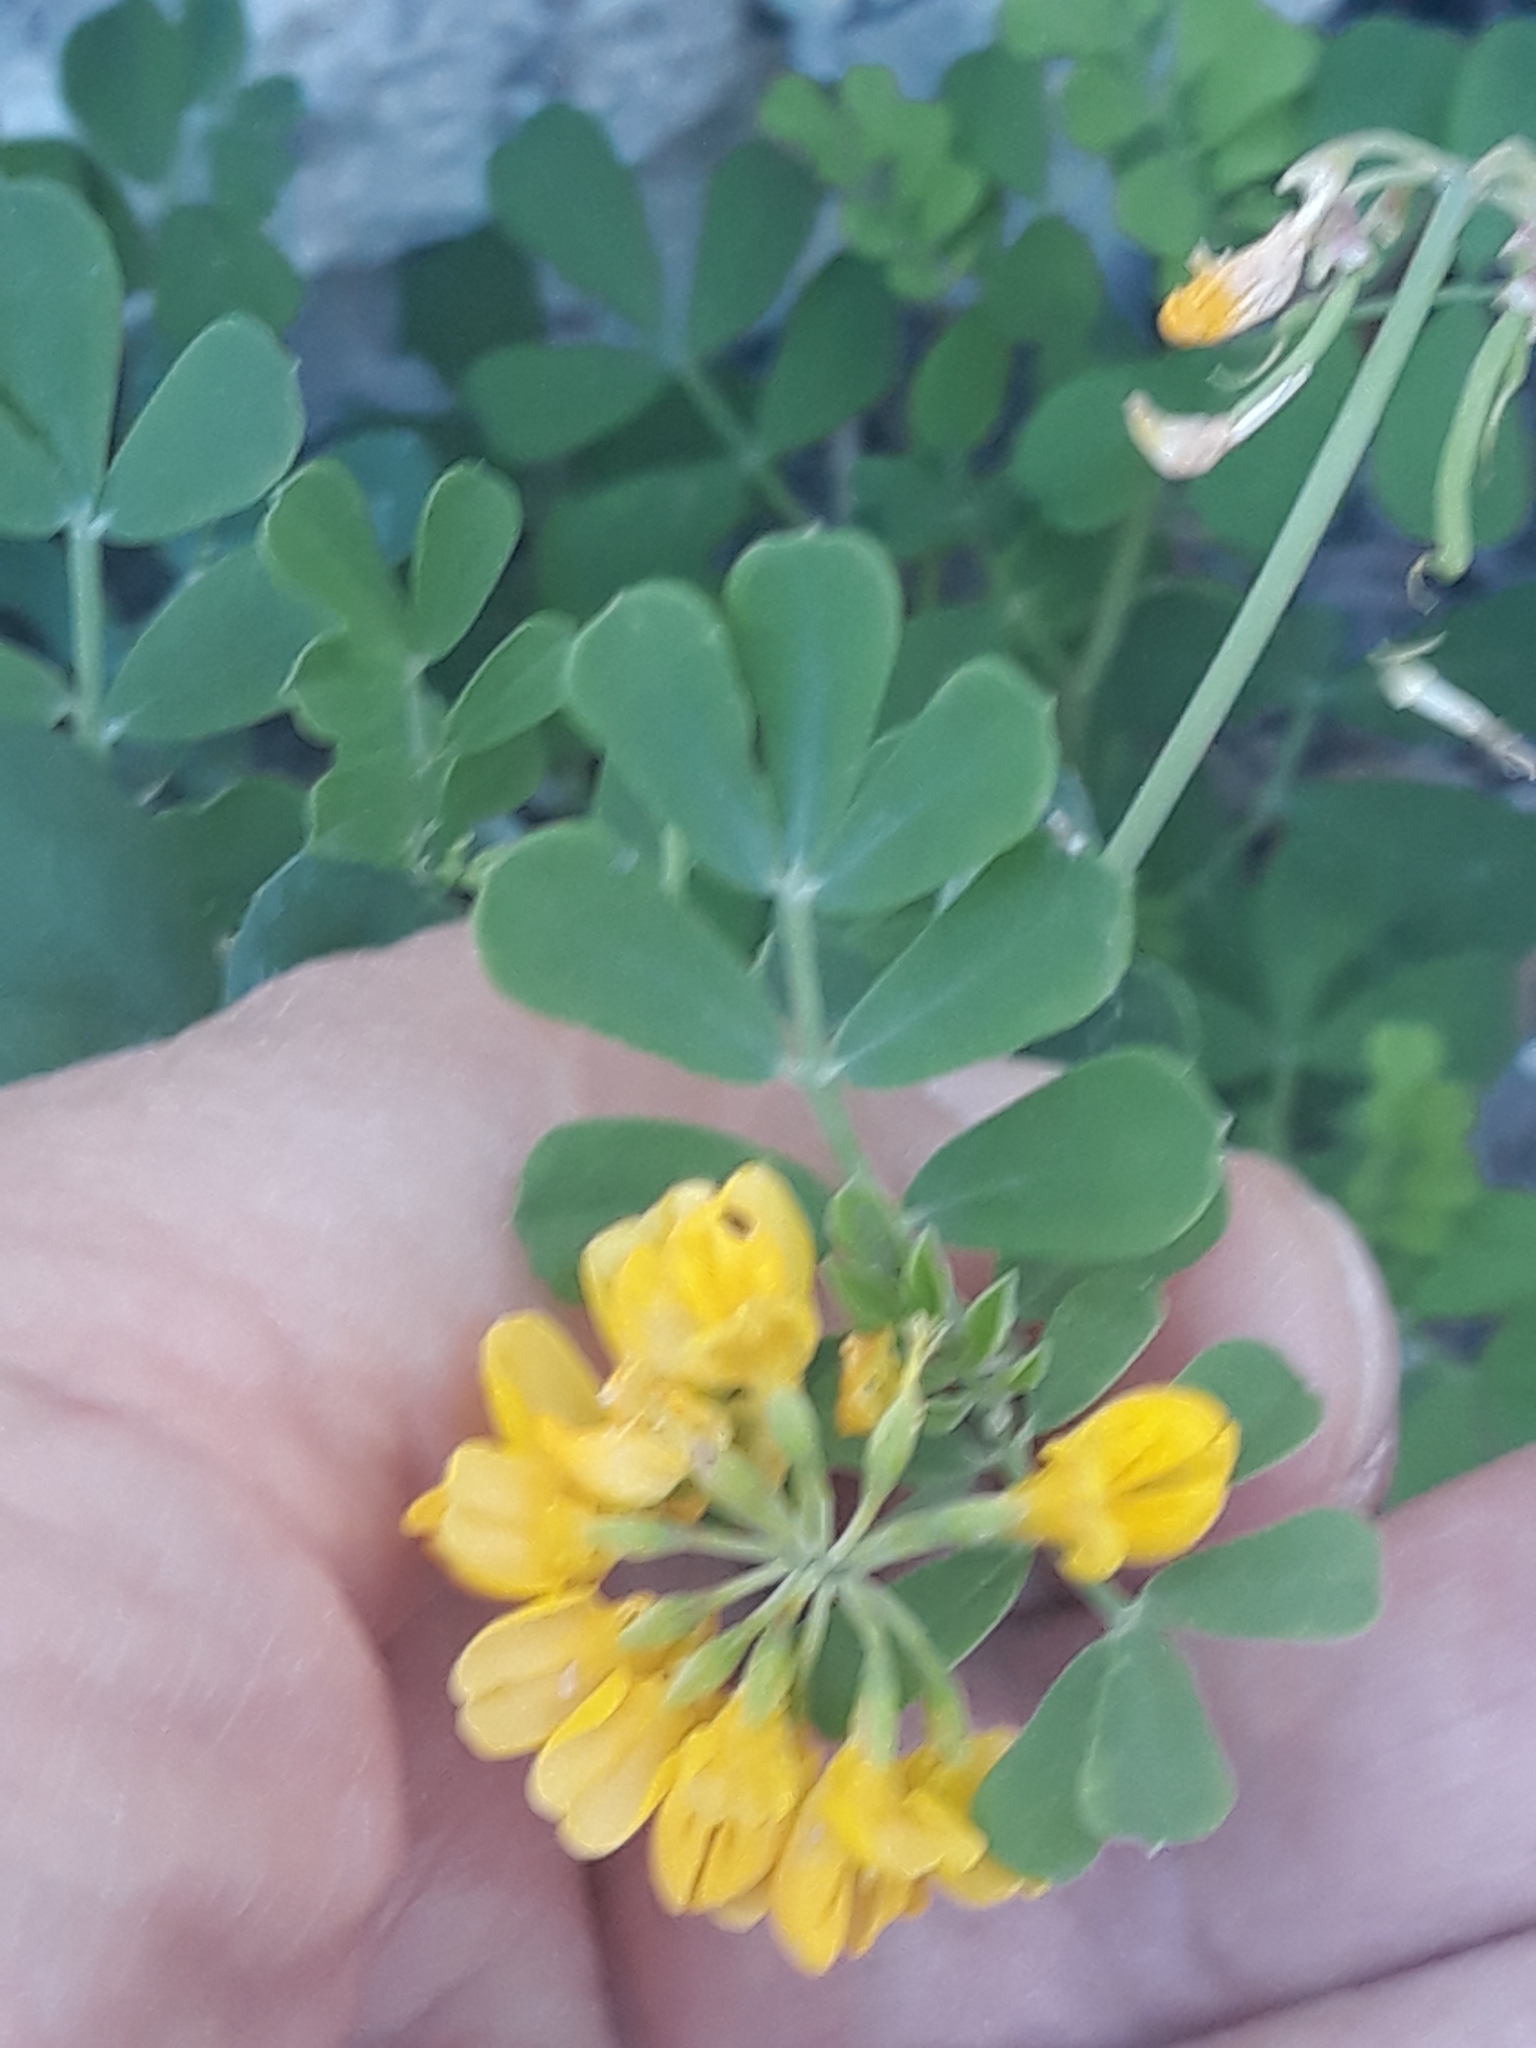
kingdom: Plantae
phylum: Tracheophyta
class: Magnoliopsida
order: Fabales
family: Fabaceae
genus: Coronilla
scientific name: Coronilla valentina
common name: Shrubby scorpion-vetch
